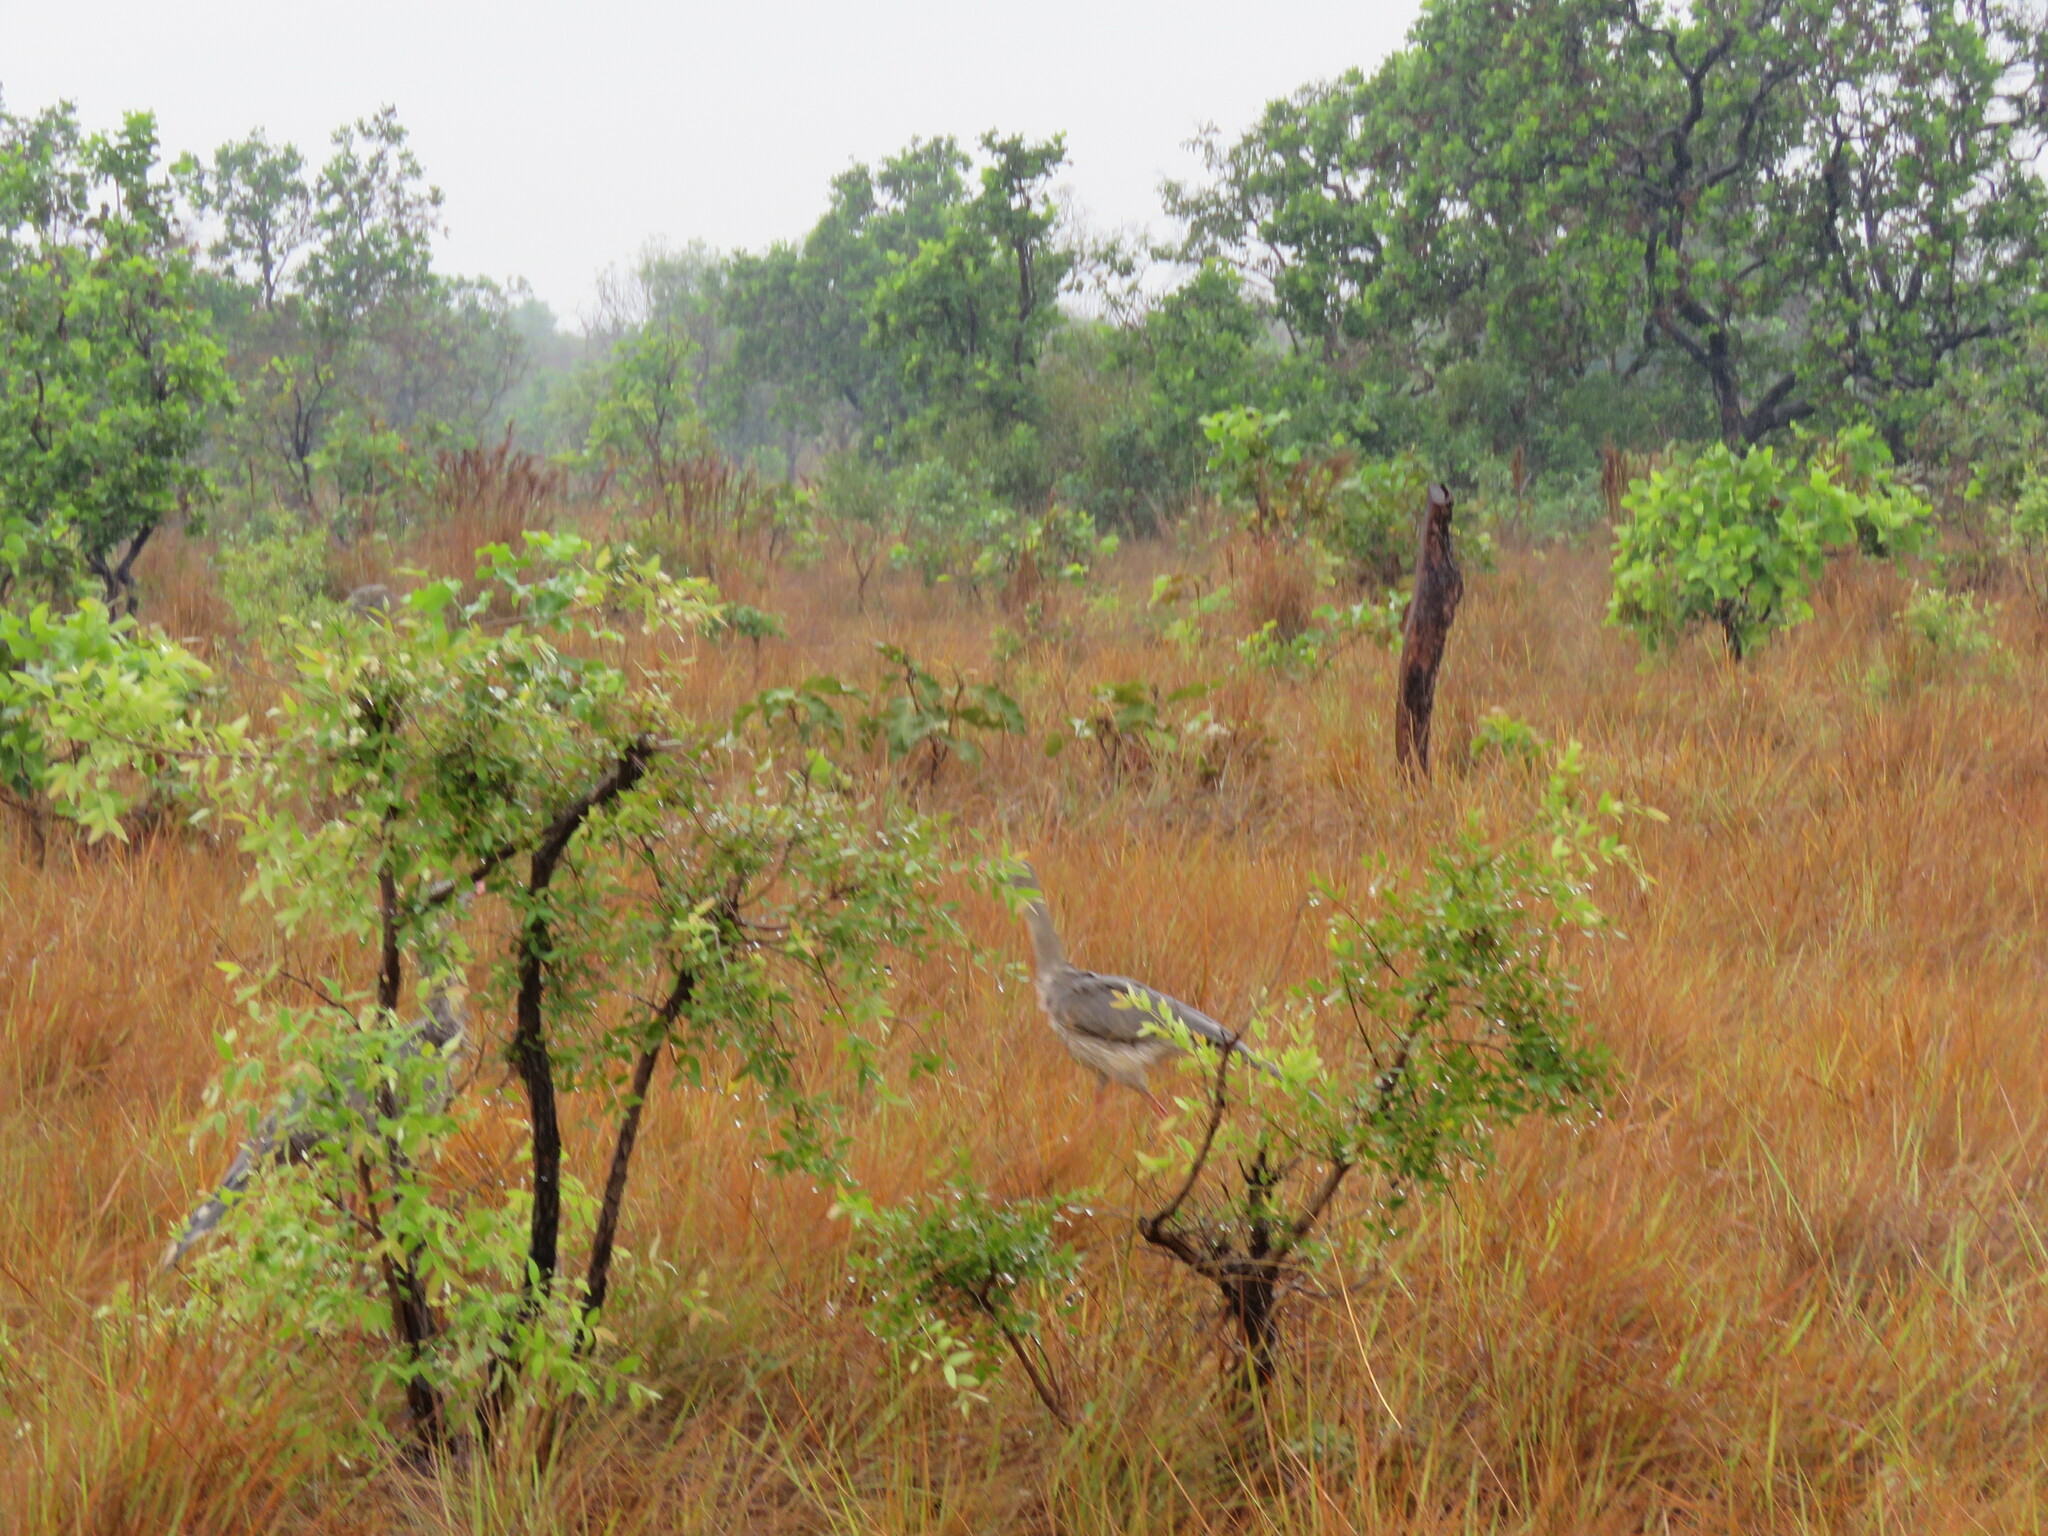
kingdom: Animalia
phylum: Chordata
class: Aves
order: Cariamiformes
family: Cariamidae
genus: Cariama
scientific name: Cariama cristata
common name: Red-legged seriema
